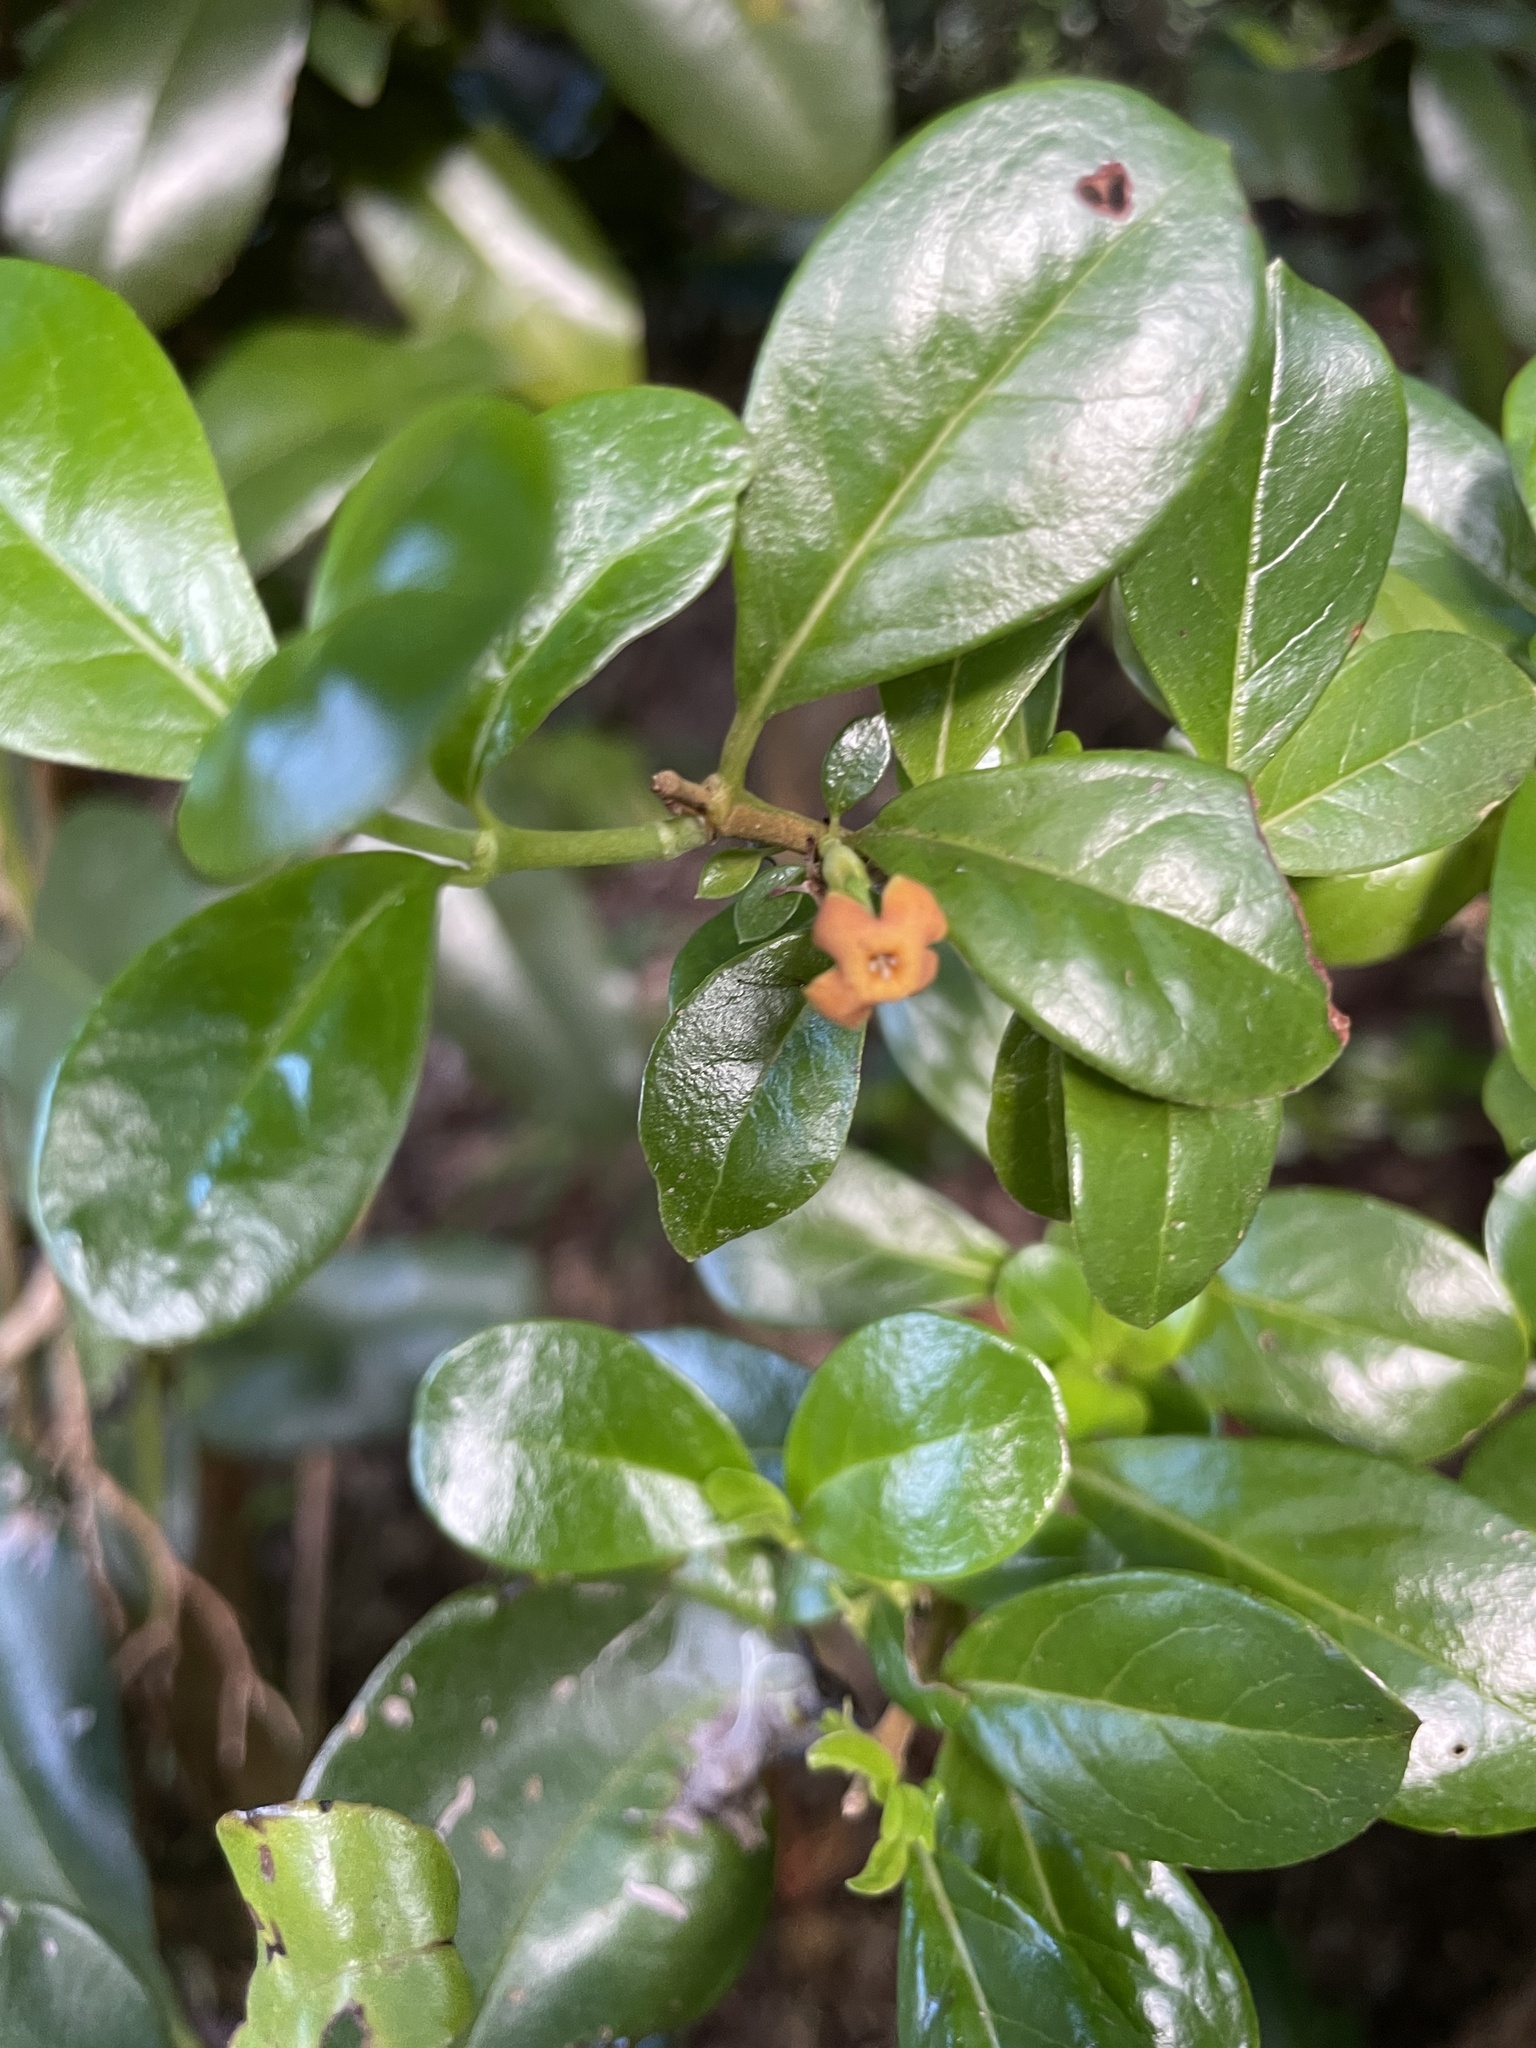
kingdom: Plantae
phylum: Tracheophyta
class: Magnoliopsida
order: Gentianales
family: Rubiaceae
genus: Rondeletia
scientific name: Rondeletia buxifolia
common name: Pribby
